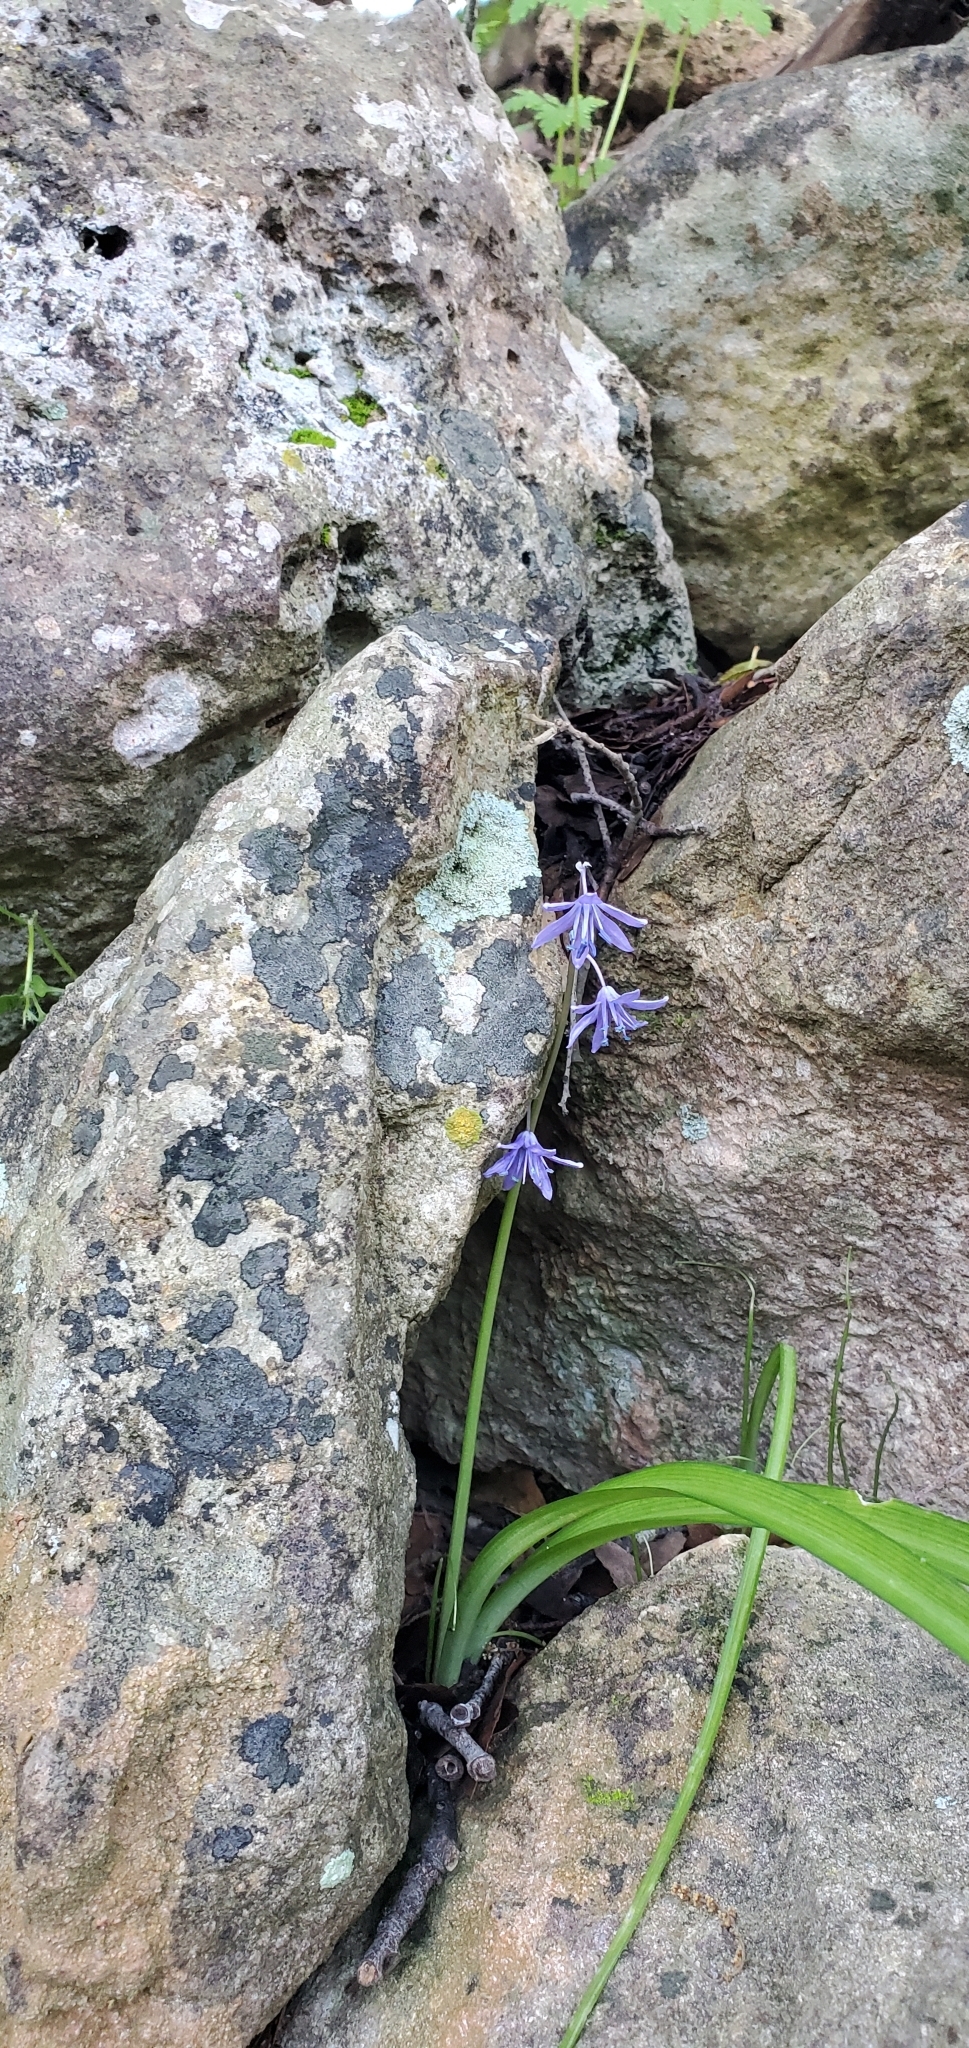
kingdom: Plantae
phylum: Tracheophyta
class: Liliopsida
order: Asparagales
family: Asparagaceae
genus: Scilla
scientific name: Scilla cilicica
